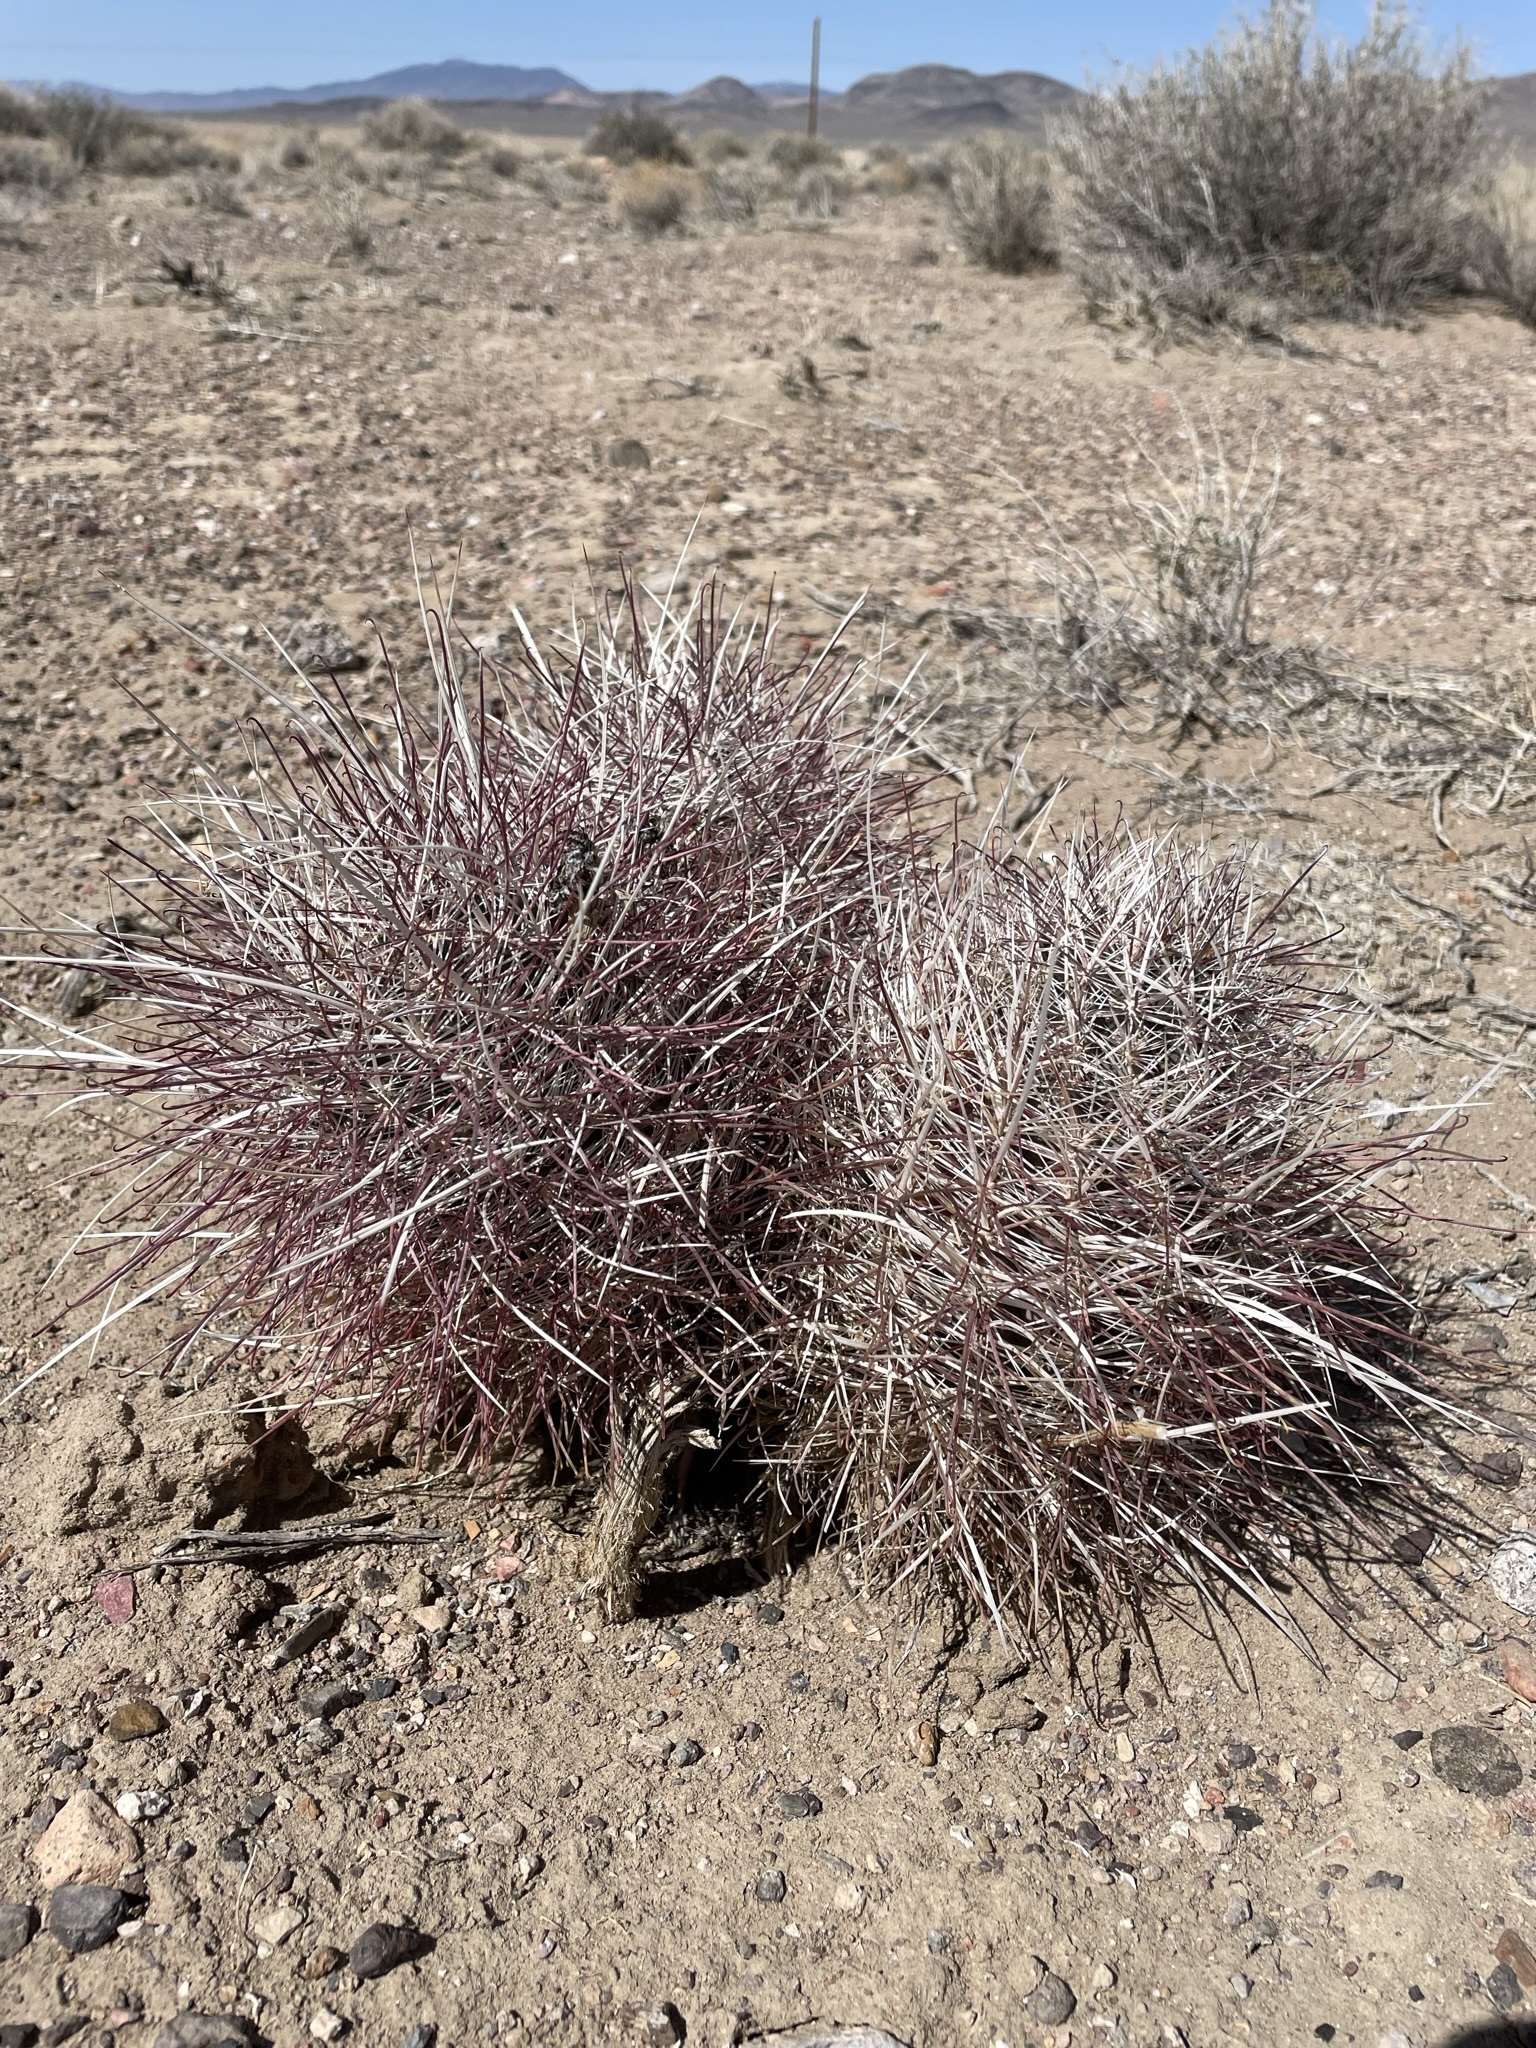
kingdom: Plantae
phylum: Tracheophyta
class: Magnoliopsida
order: Caryophyllales
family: Cactaceae
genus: Sclerocactus
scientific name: Sclerocactus polyancistrus
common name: Mohave fishhook cactus
